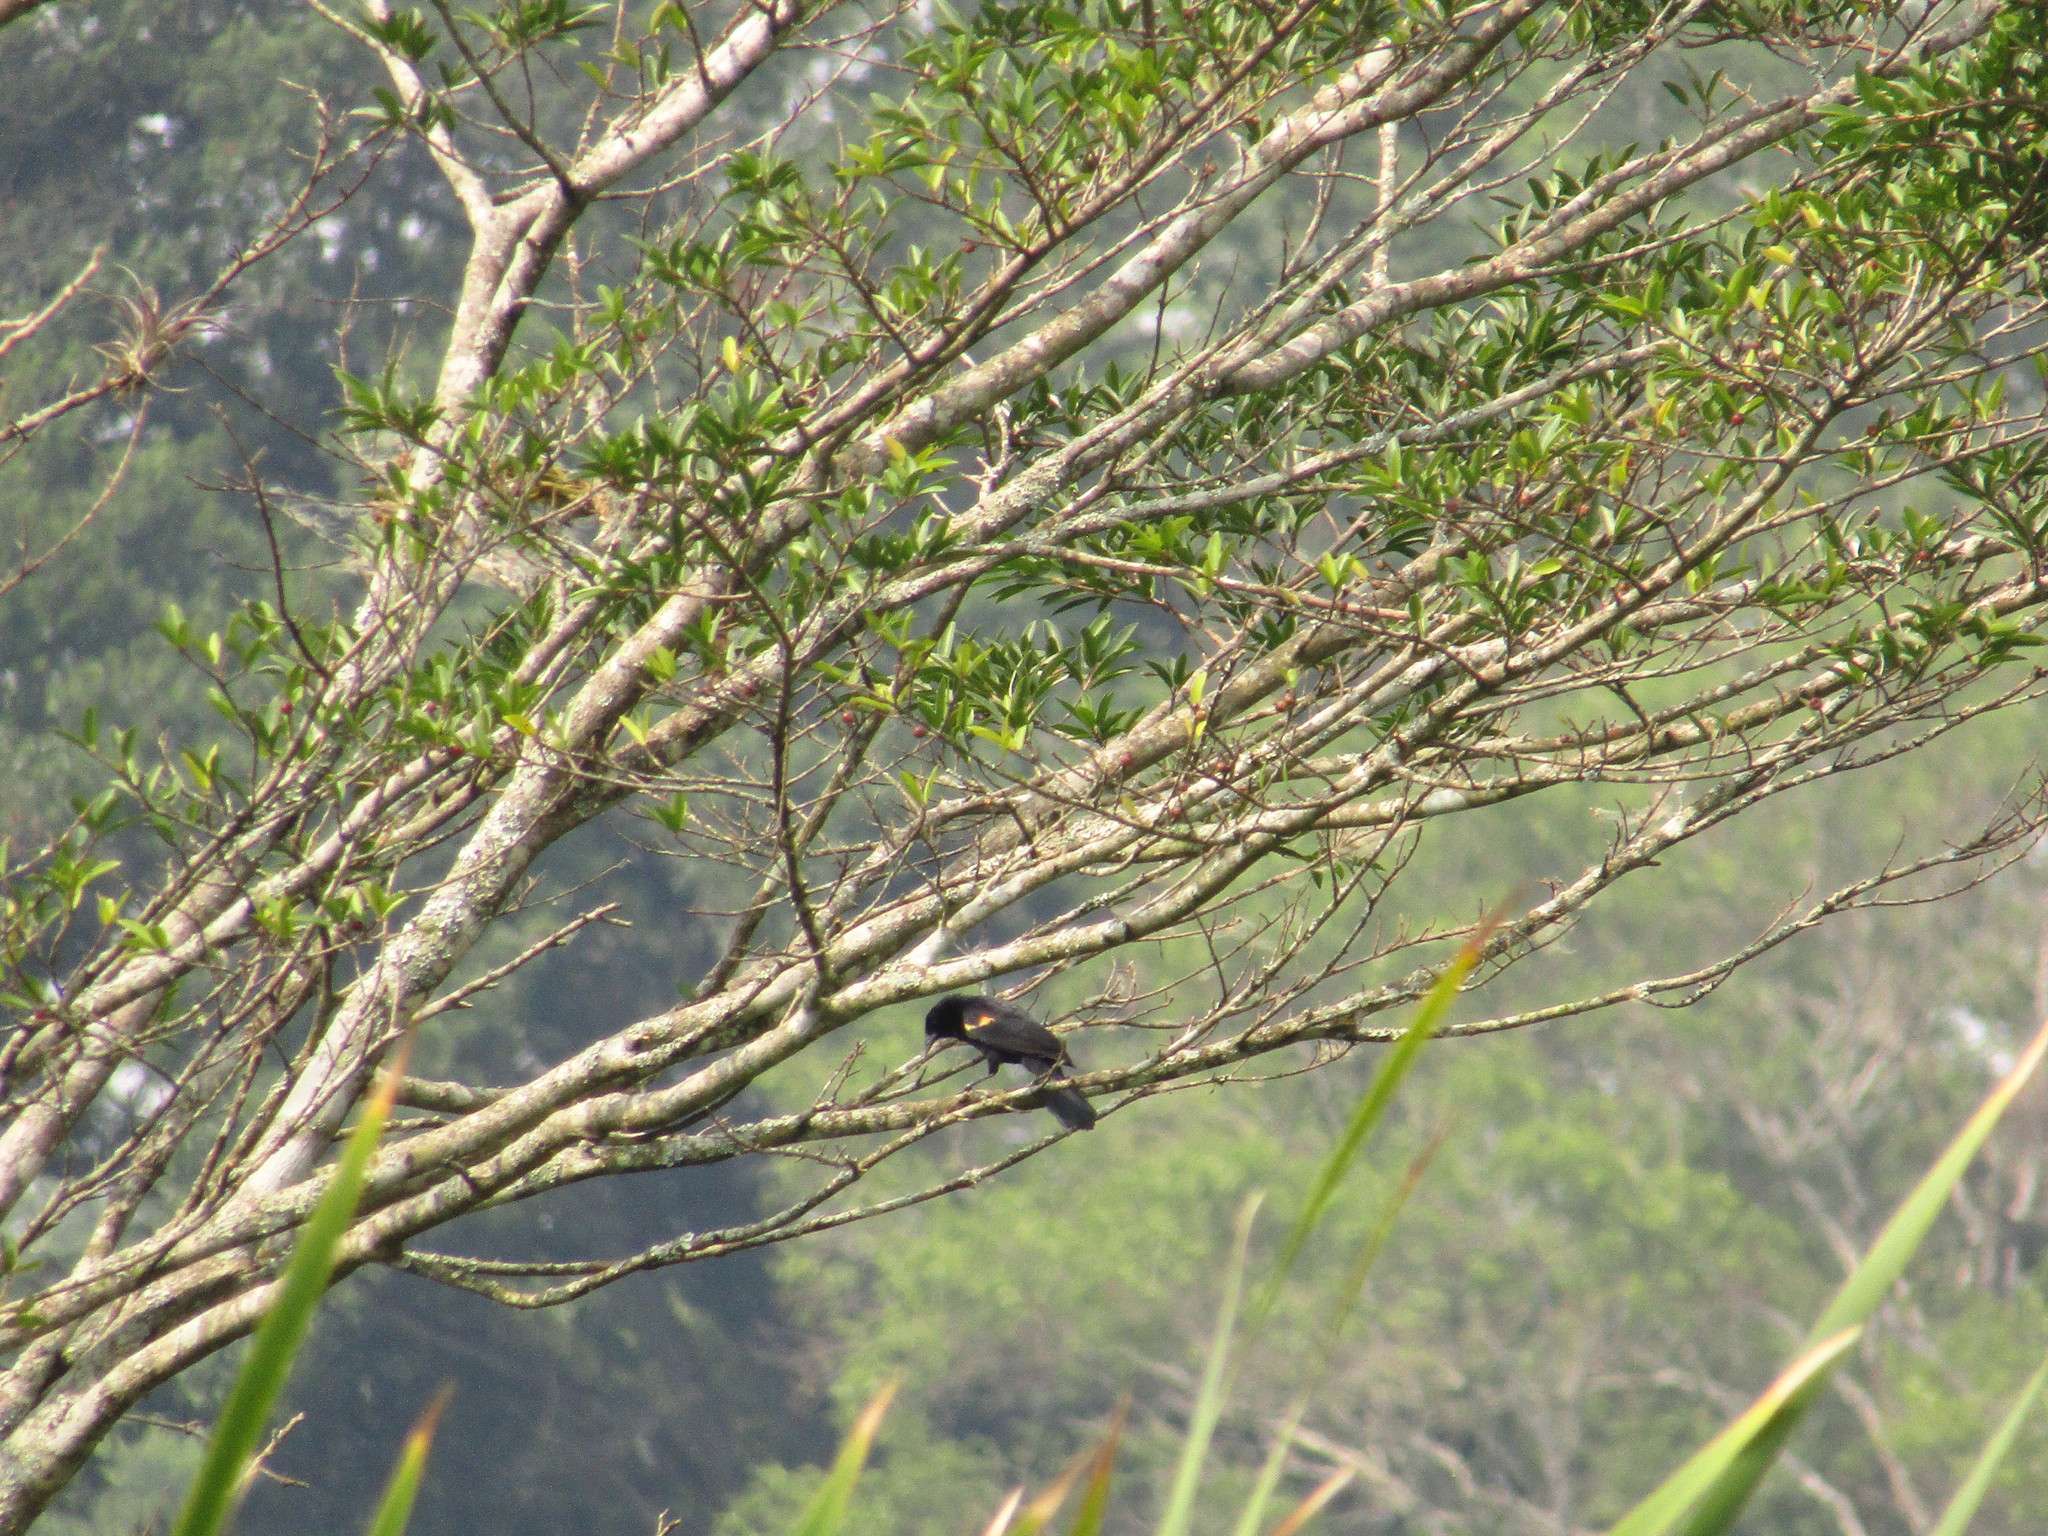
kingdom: Animalia
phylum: Chordata
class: Aves
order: Passeriformes
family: Icteridae
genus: Agelaius
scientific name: Agelaius phoeniceus
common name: Red-winged blackbird
